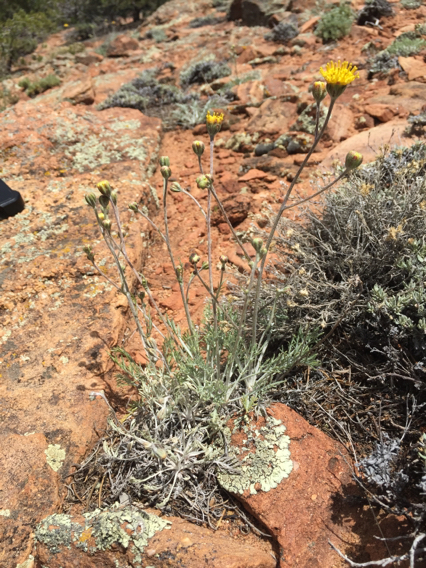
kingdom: Plantae
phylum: Tracheophyta
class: Magnoliopsida
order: Asterales
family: Asteraceae
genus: Hymenopappus
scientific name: Hymenopappus filifolius
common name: Columbia cutleaf
